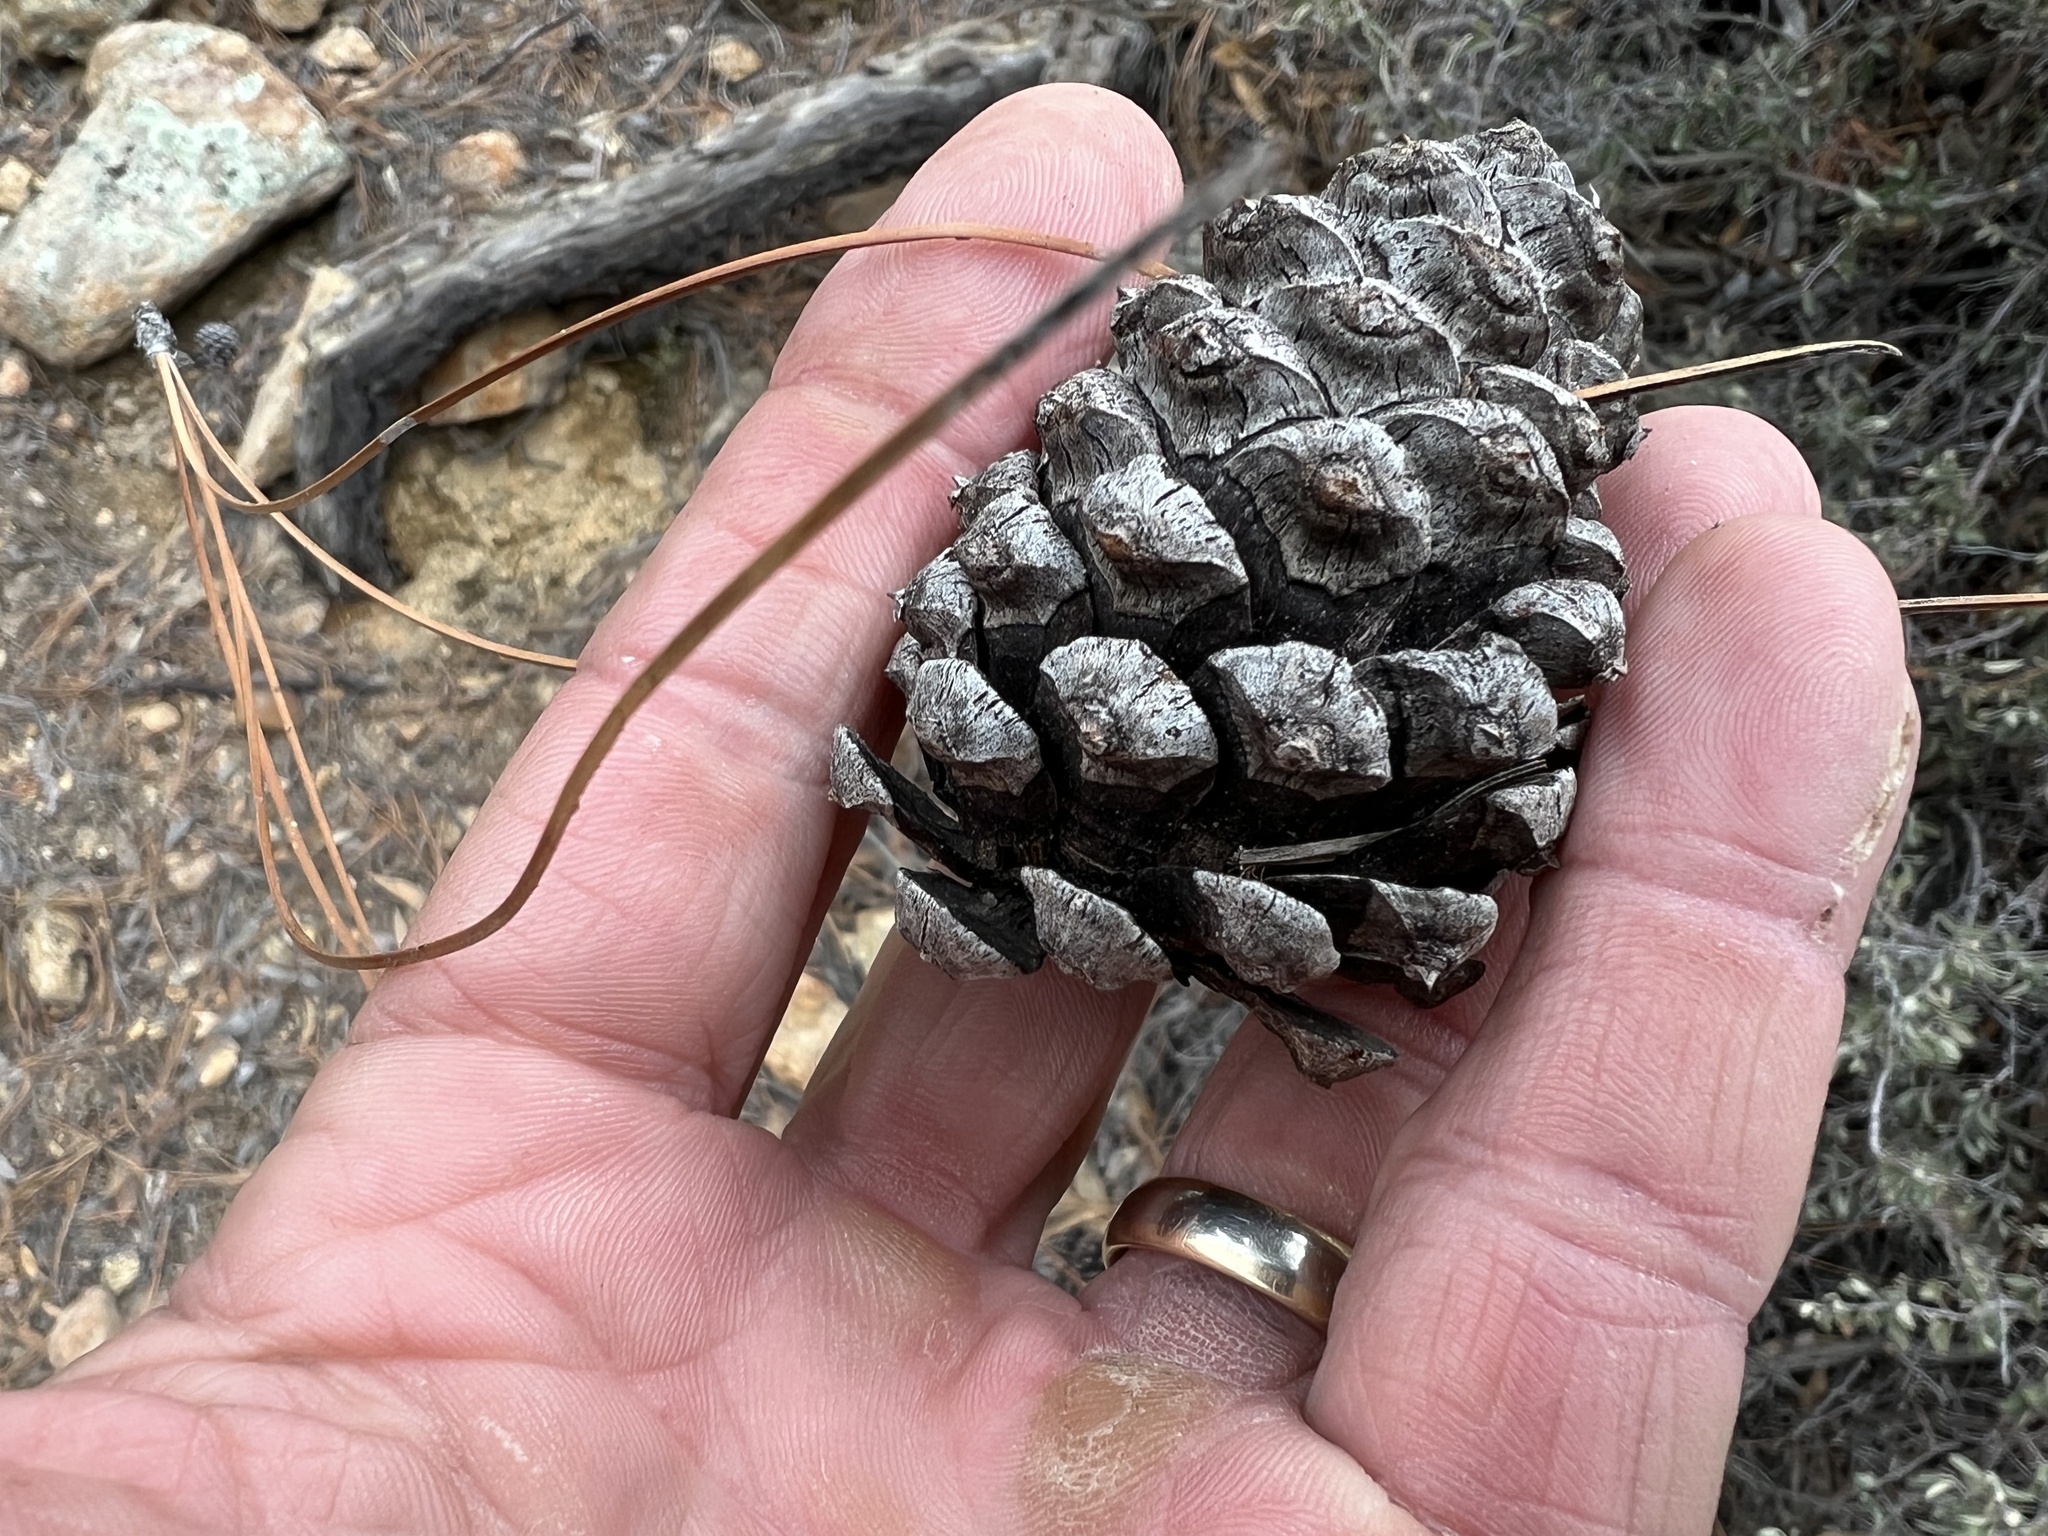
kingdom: Plantae
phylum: Tracheophyta
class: Pinopsida
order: Pinales
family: Pinaceae
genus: Pinus
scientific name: Pinus leiophylla
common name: Chihuahua pine
